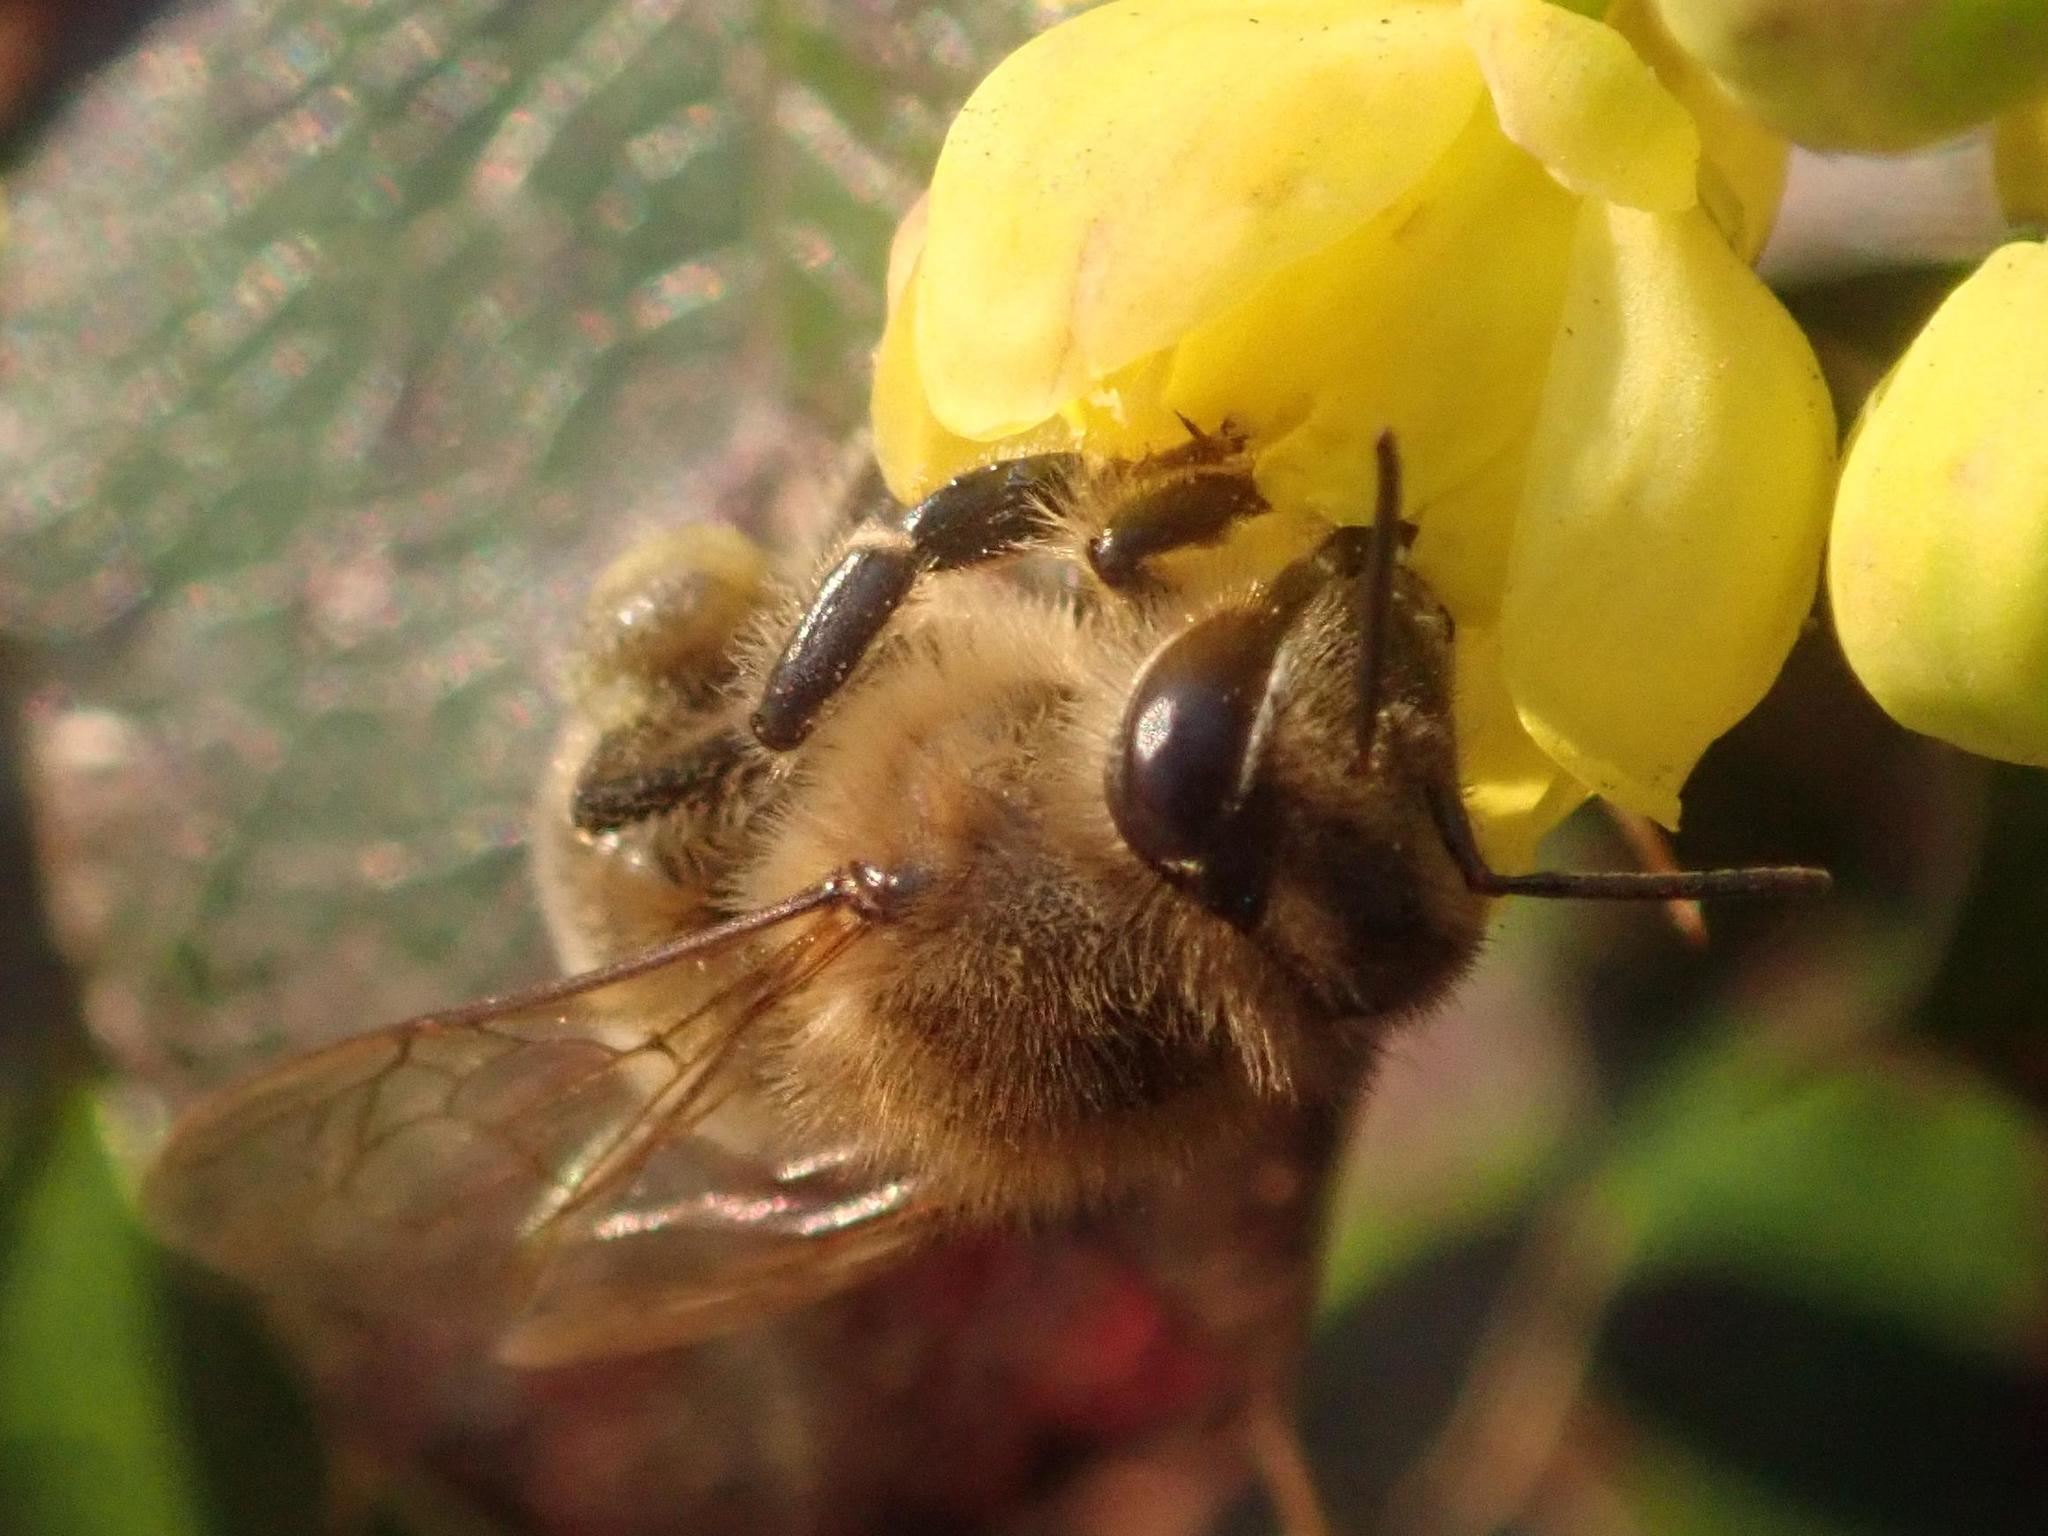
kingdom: Animalia
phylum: Arthropoda
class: Insecta
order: Hymenoptera
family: Apidae
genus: Apis
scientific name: Apis mellifera
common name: Honey bee
